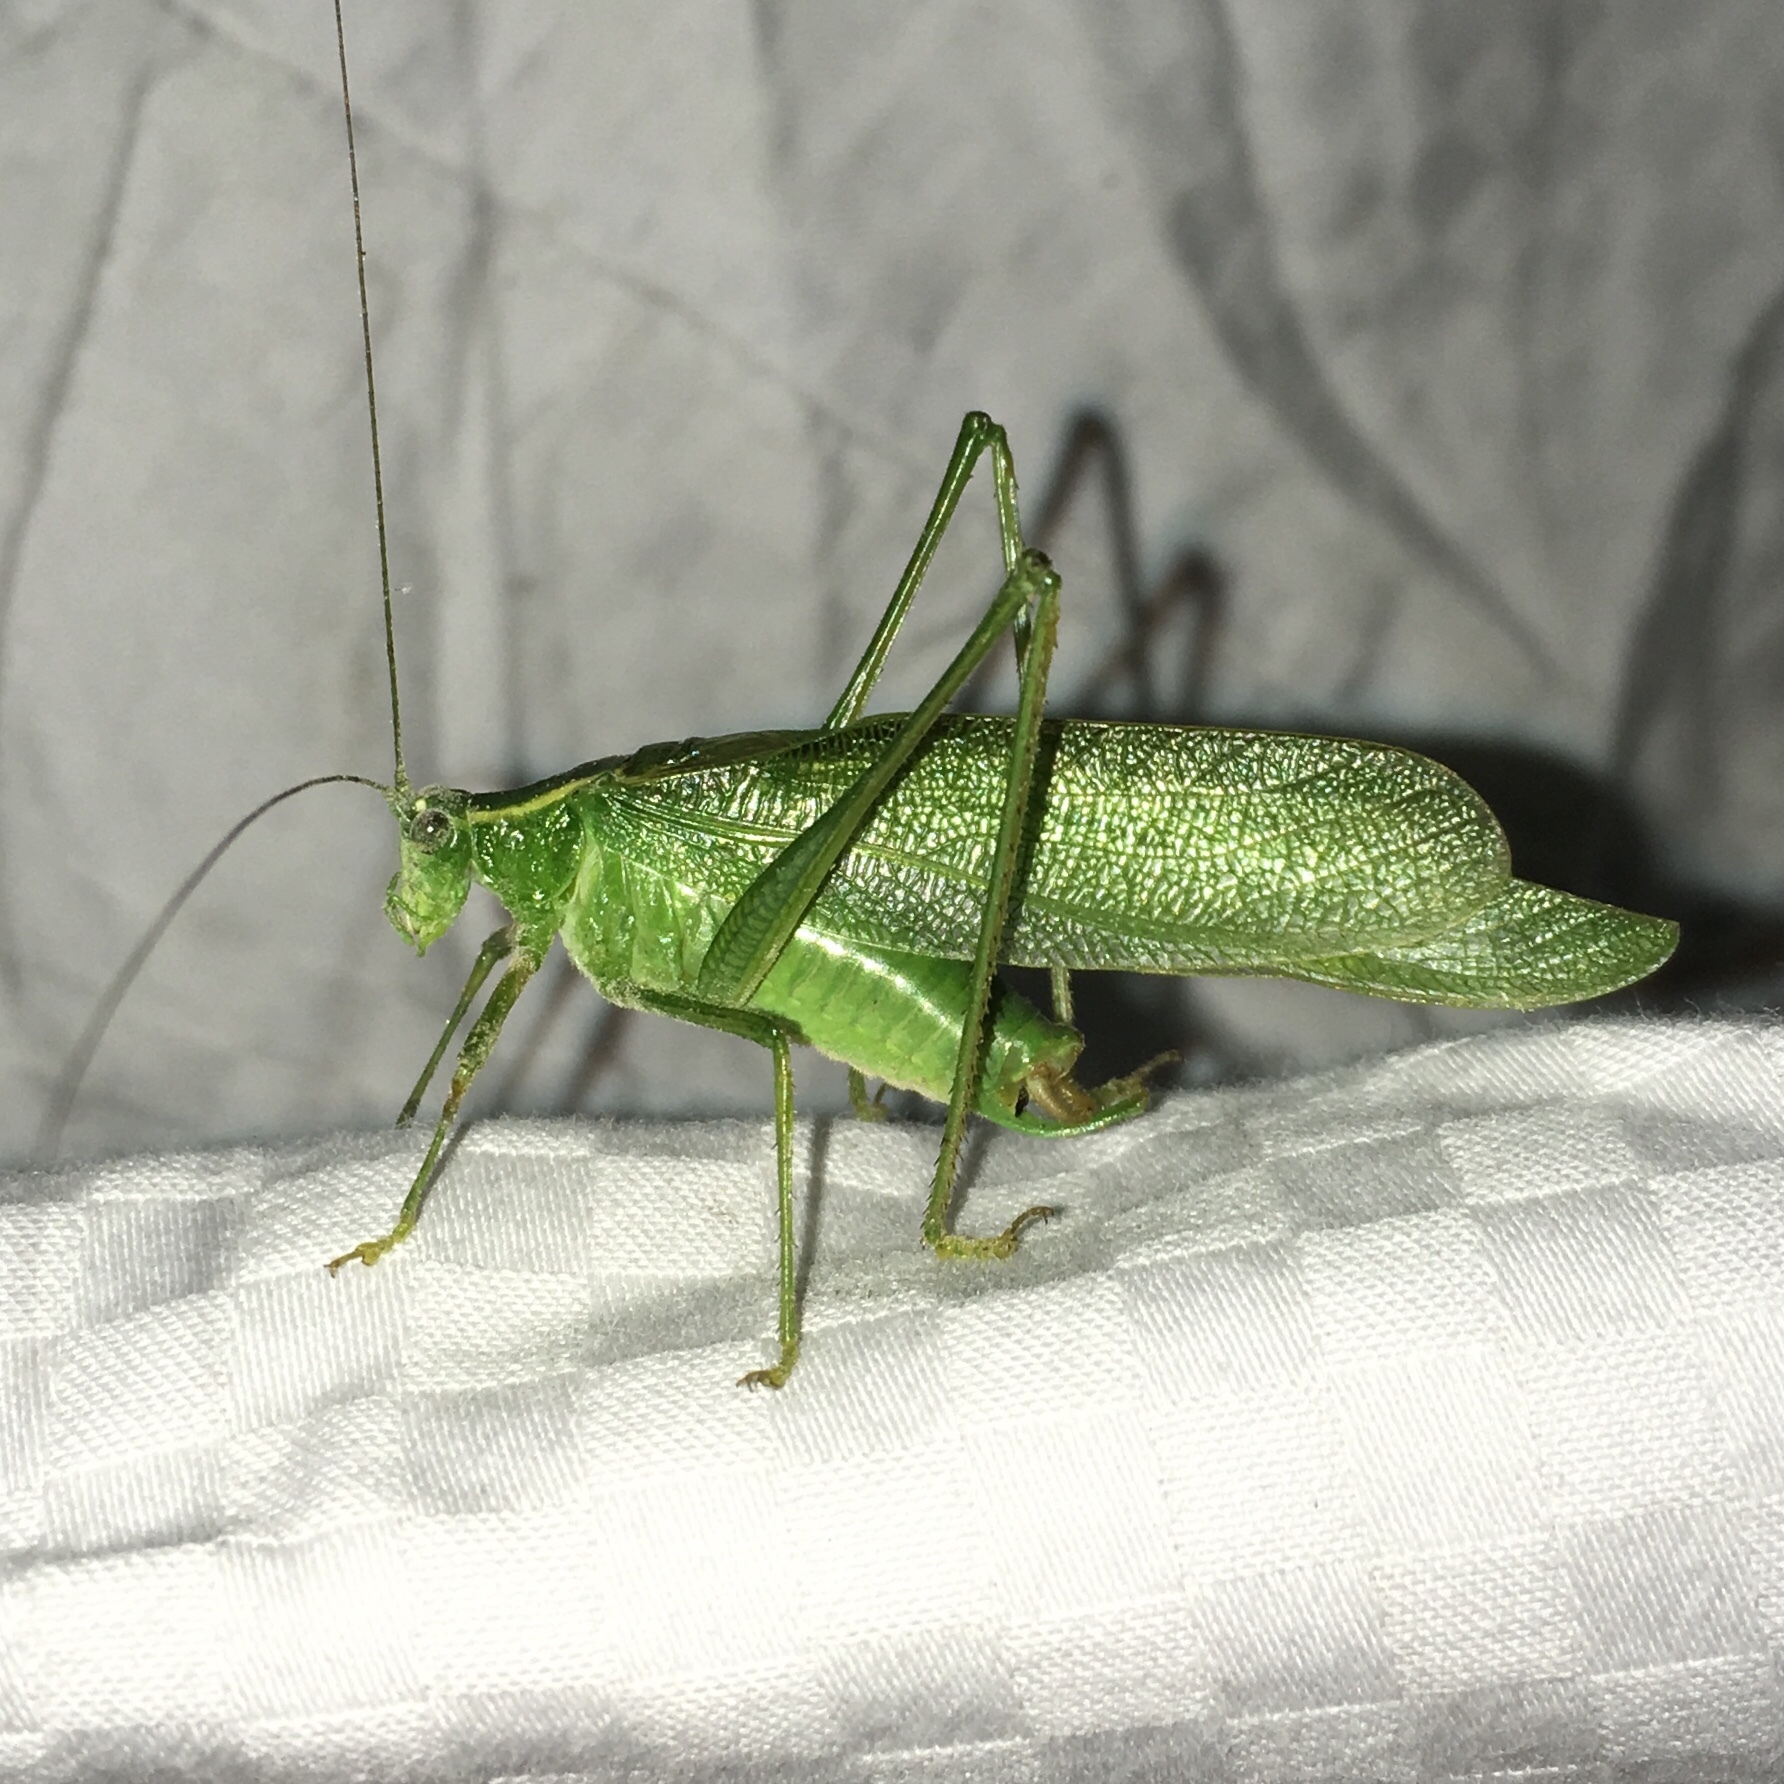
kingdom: Animalia
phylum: Arthropoda
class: Insecta
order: Orthoptera
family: Tettigoniidae
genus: Scudderia
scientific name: Scudderia septentrionalis
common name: Northern bush-katydid
